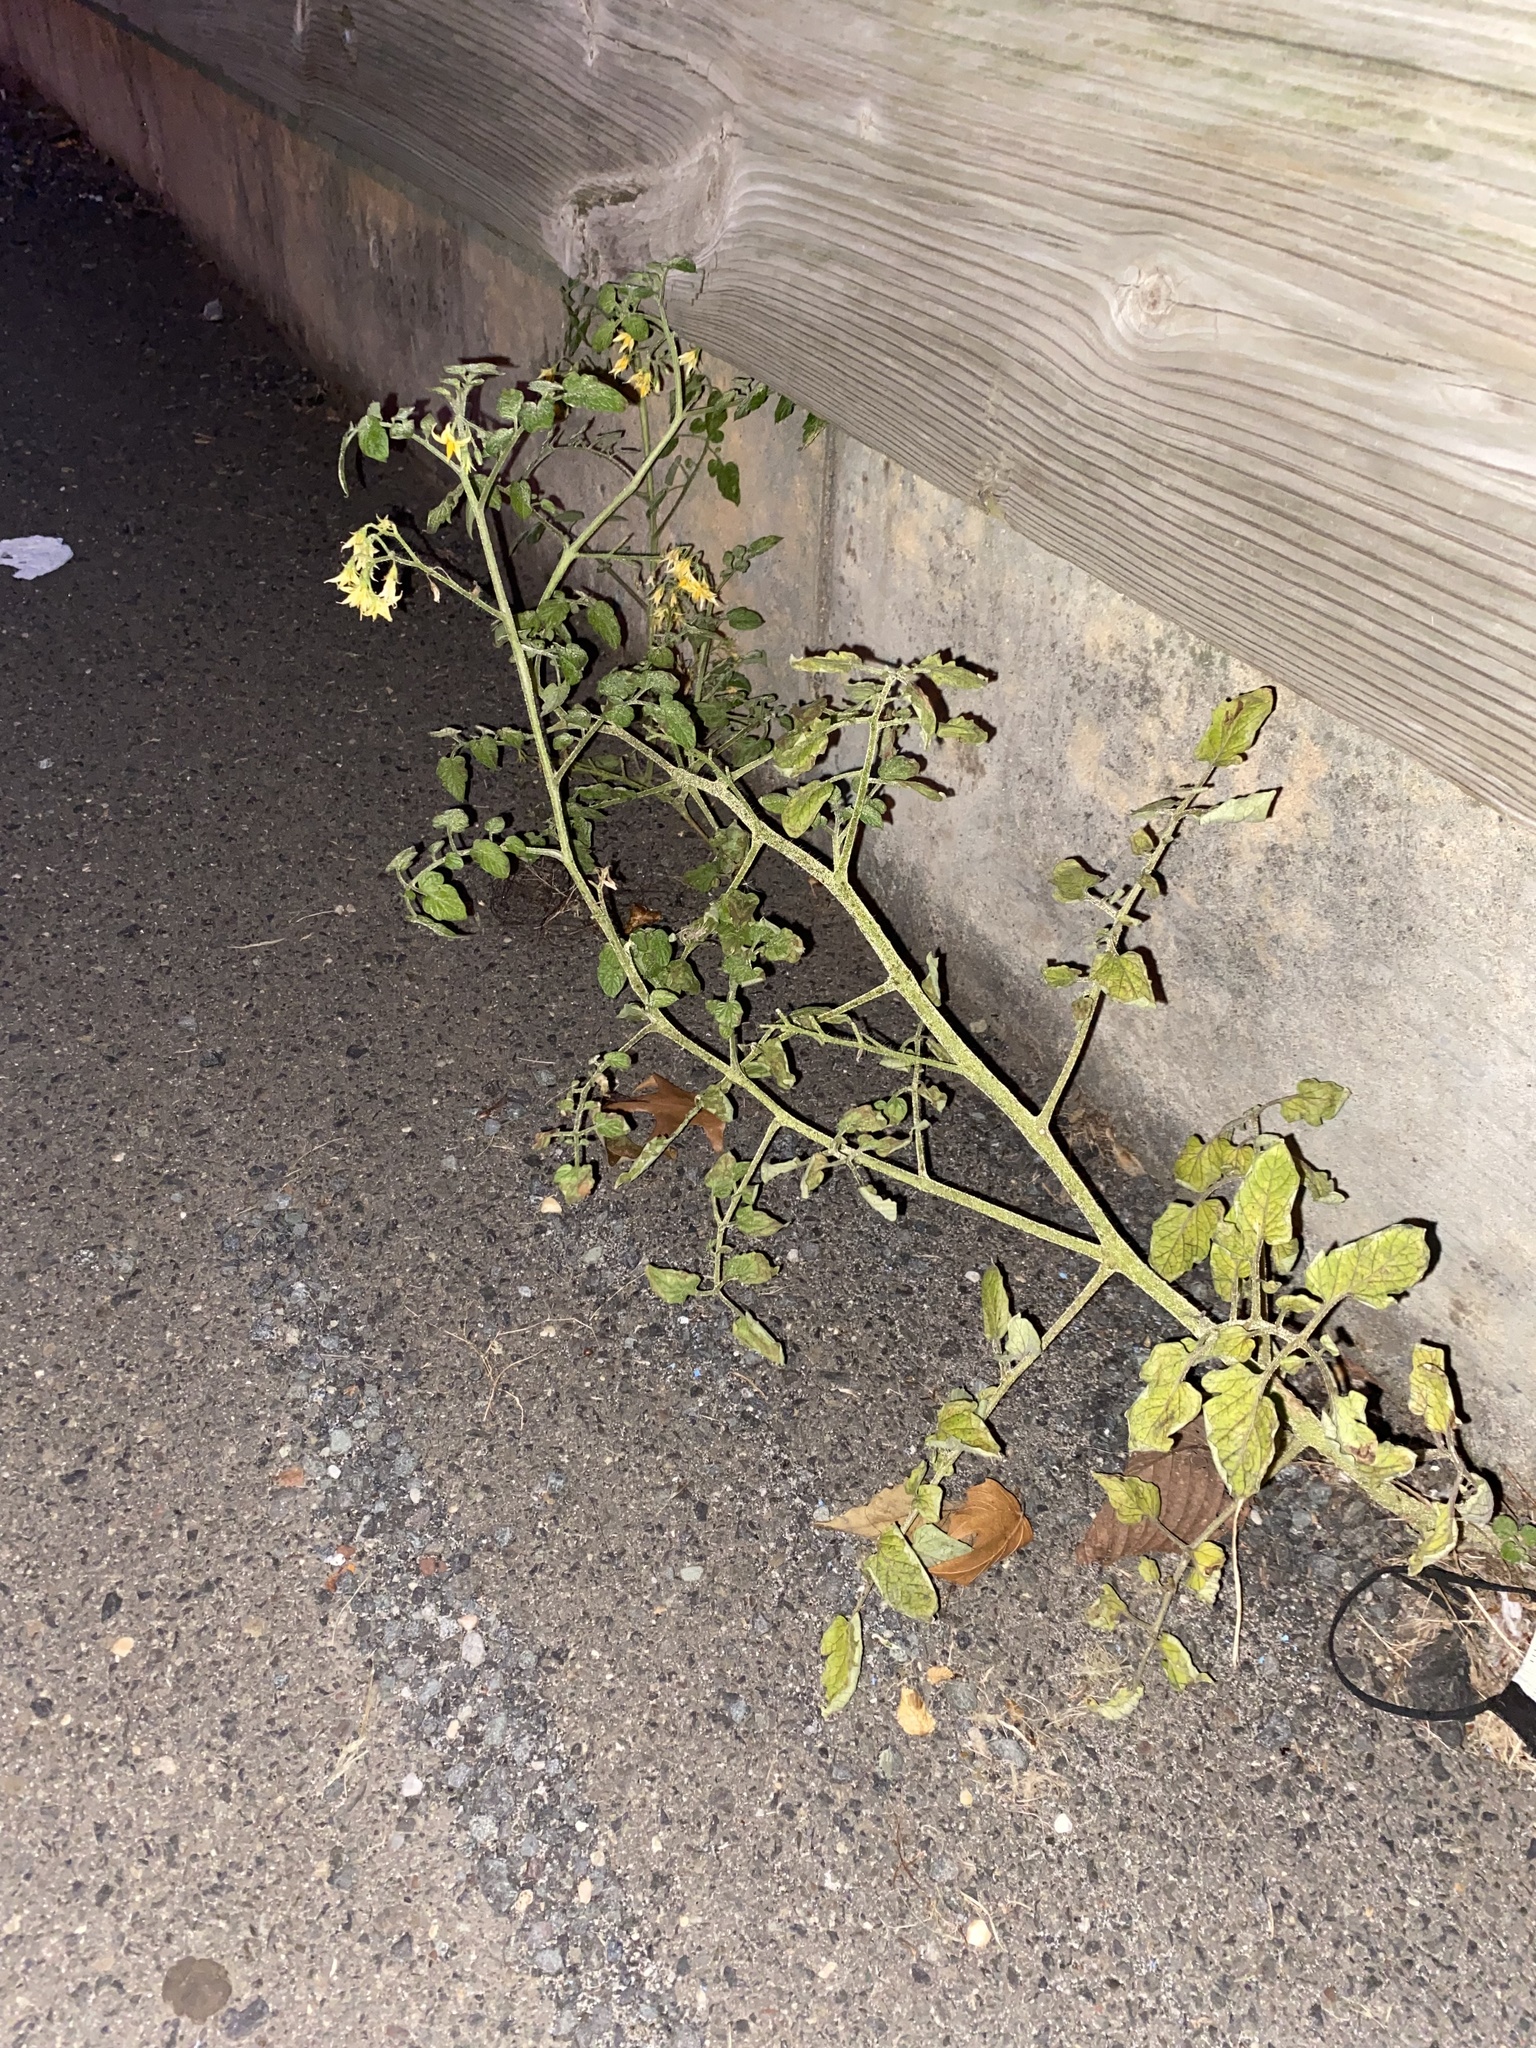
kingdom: Plantae
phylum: Tracheophyta
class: Magnoliopsida
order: Solanales
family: Solanaceae
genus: Solanum
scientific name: Solanum lycopersicum
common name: Garden tomato
